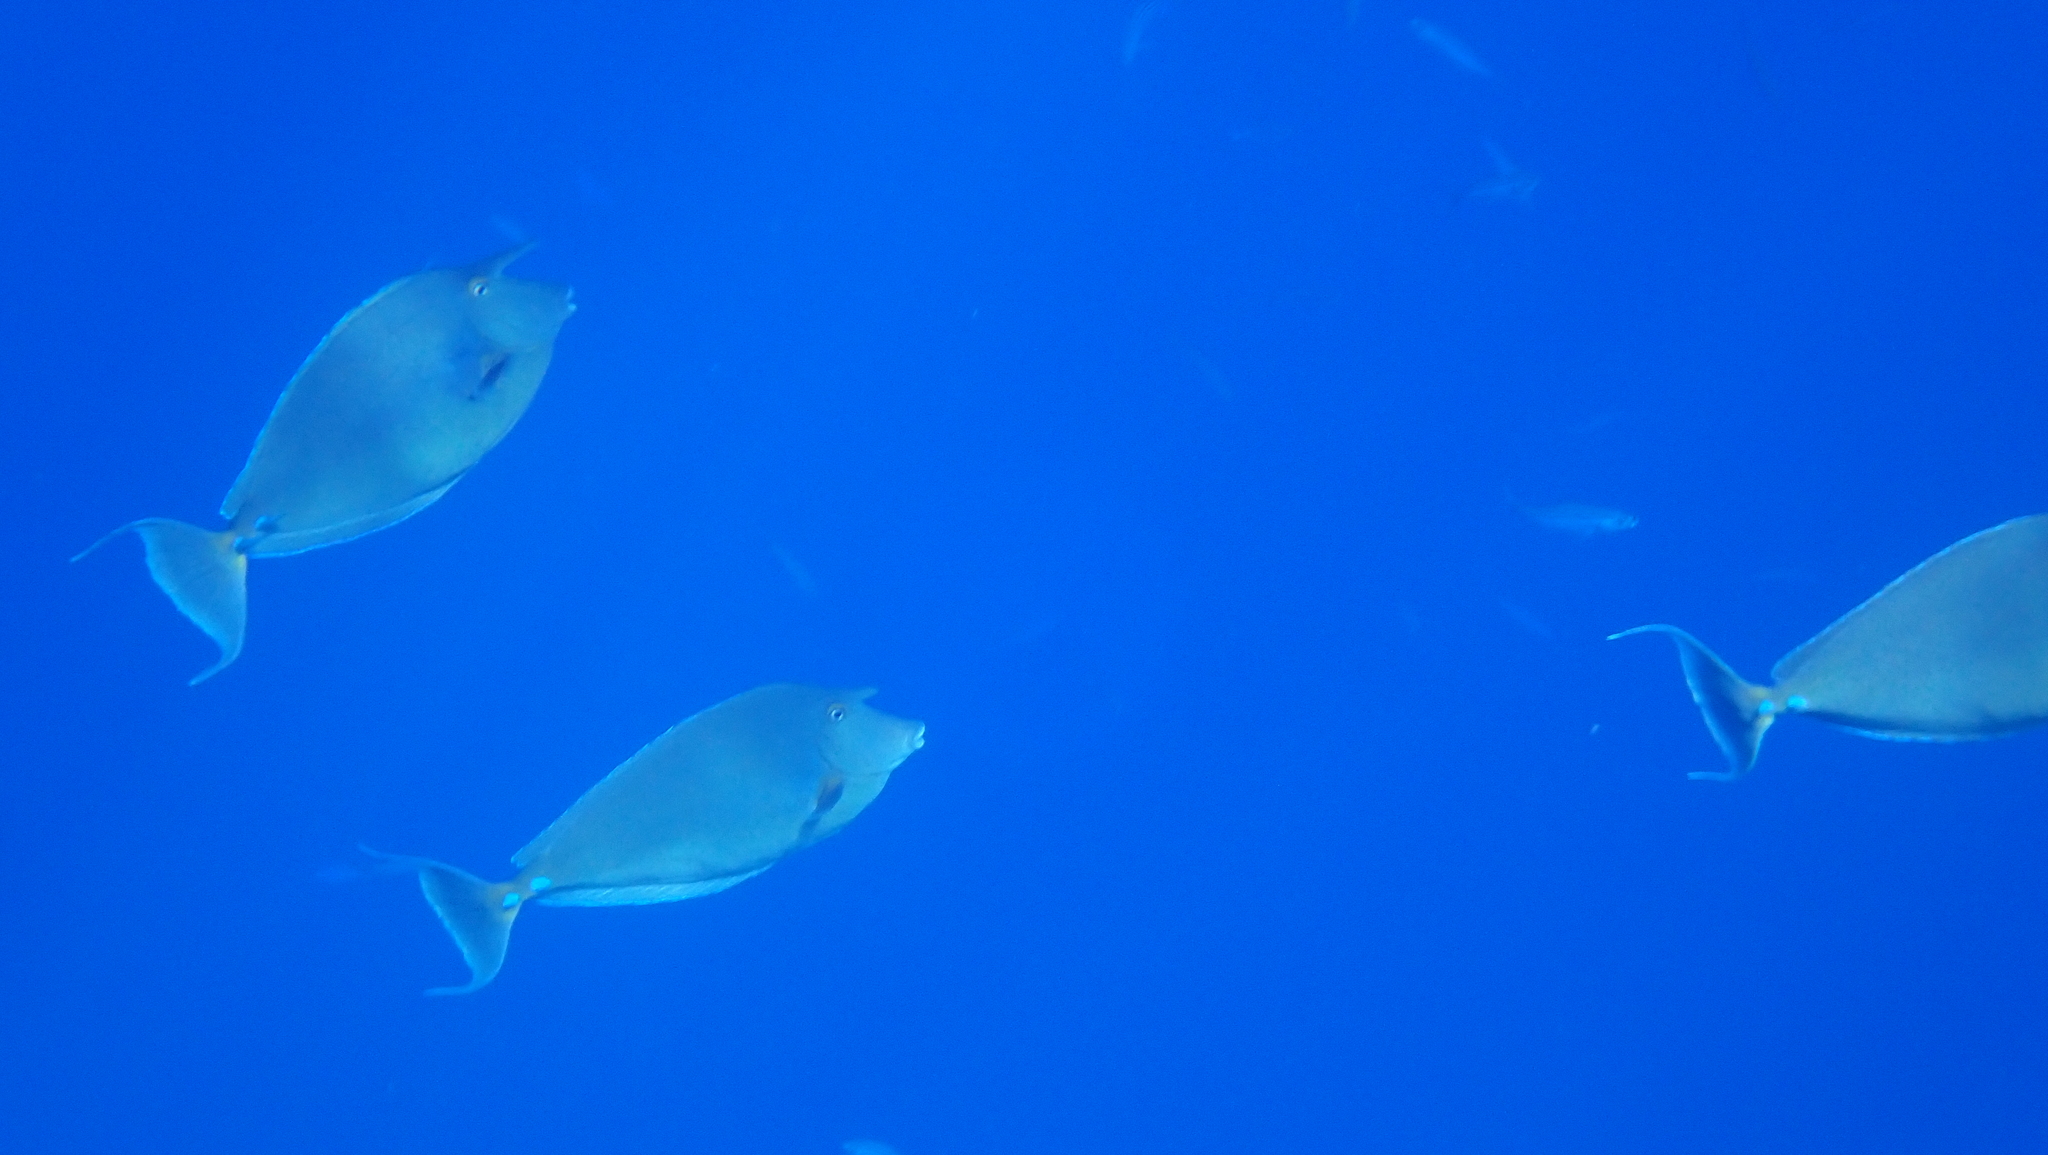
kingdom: Animalia
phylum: Chordata
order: Perciformes
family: Acanthuridae
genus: Naso
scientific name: Naso unicornis
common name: Bluespine unicornfish
